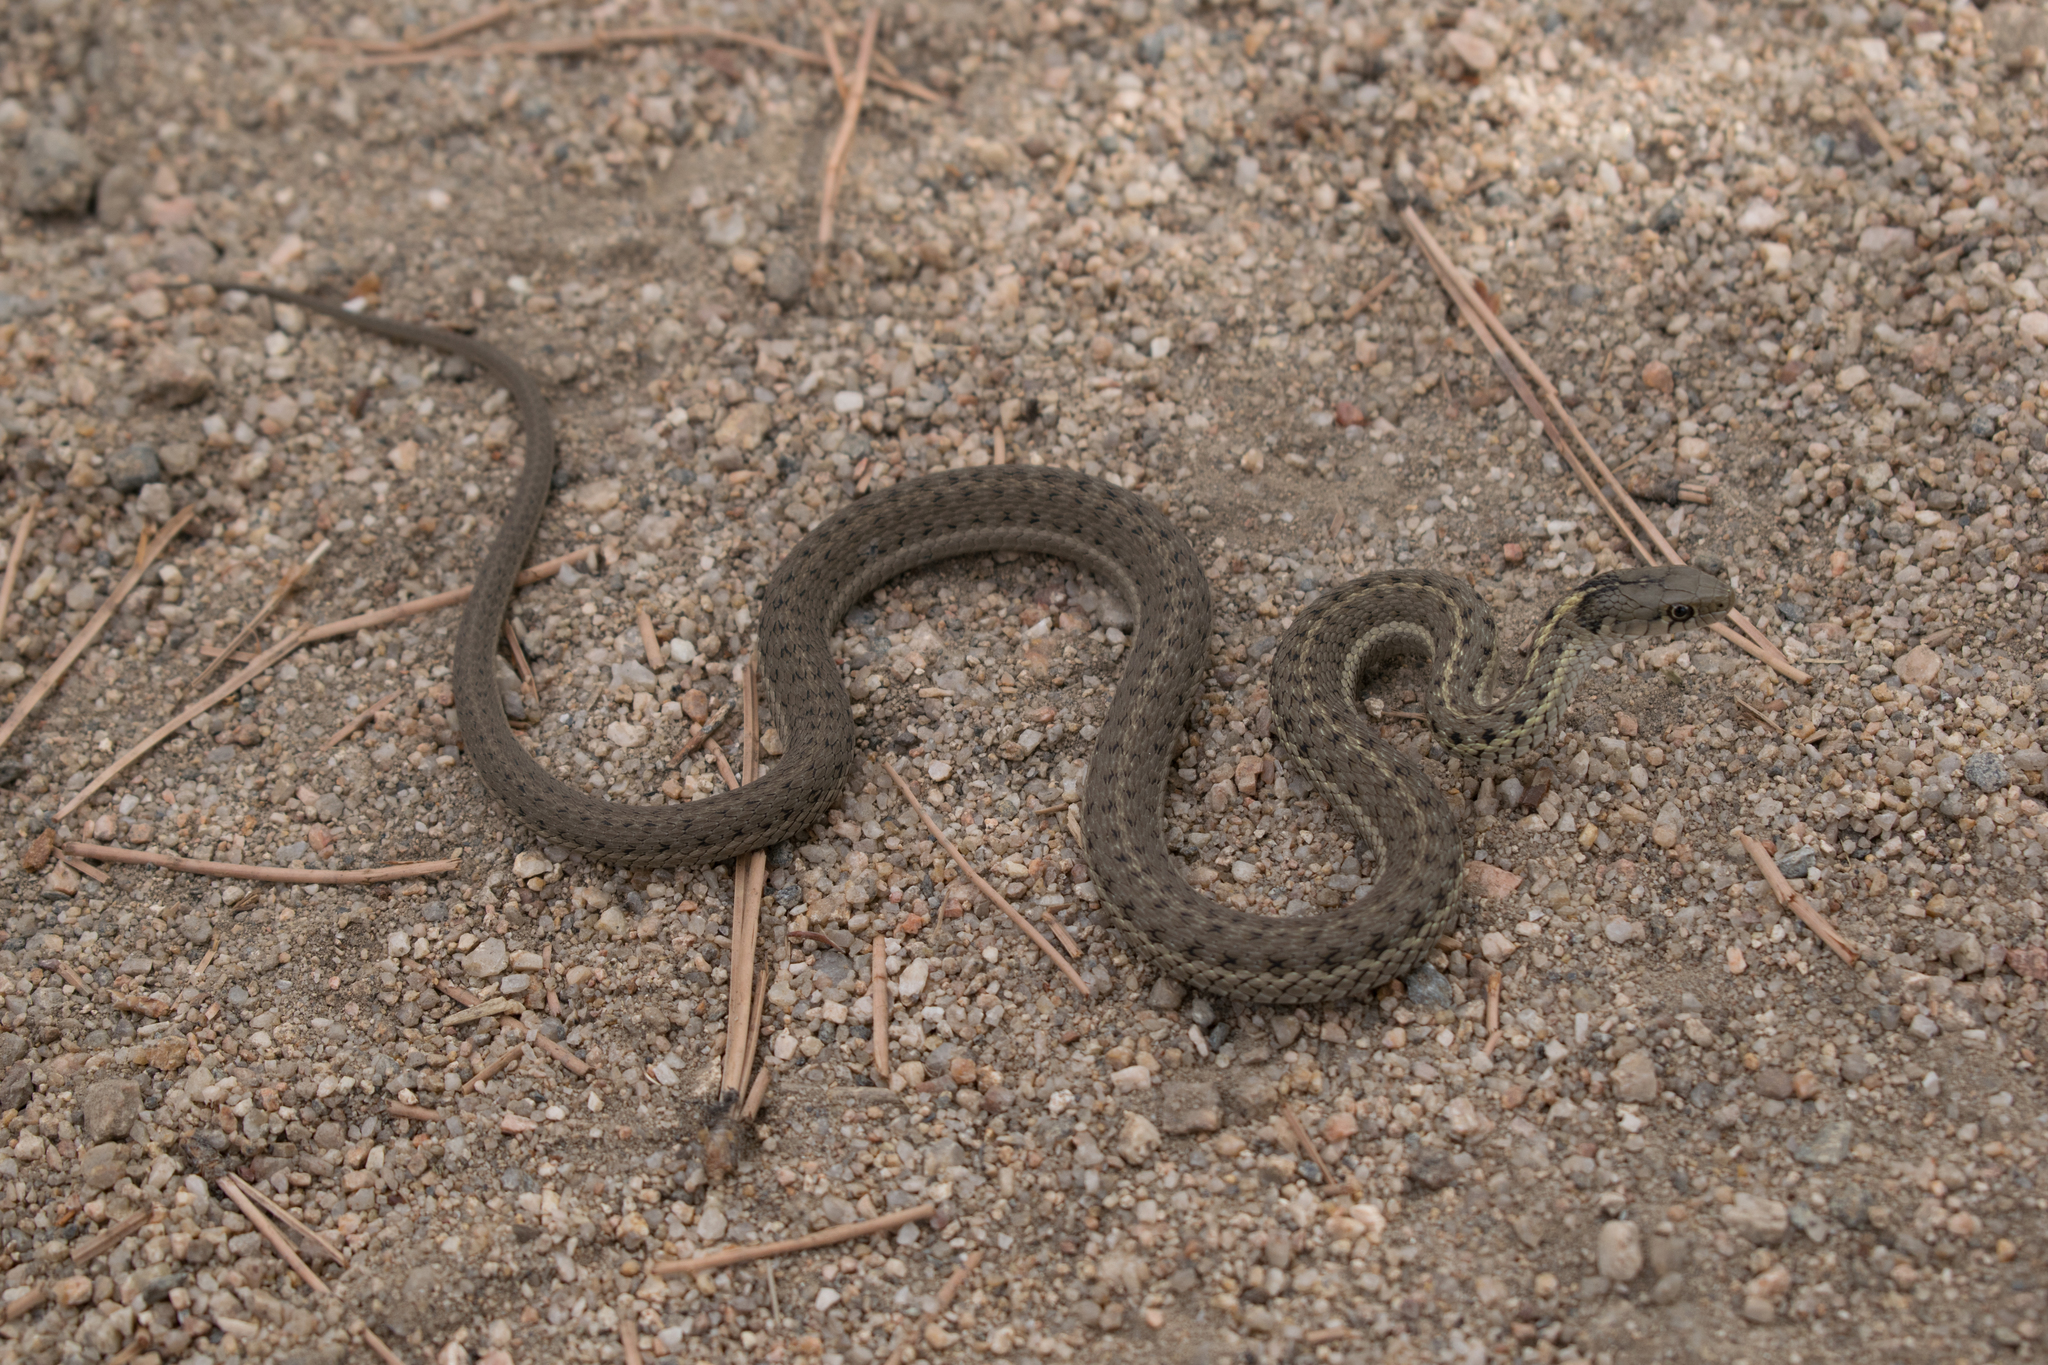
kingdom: Animalia
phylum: Chordata
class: Squamata
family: Colubridae
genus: Thamnophis
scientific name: Thamnophis elegans
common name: Western terrestrial garter snake
